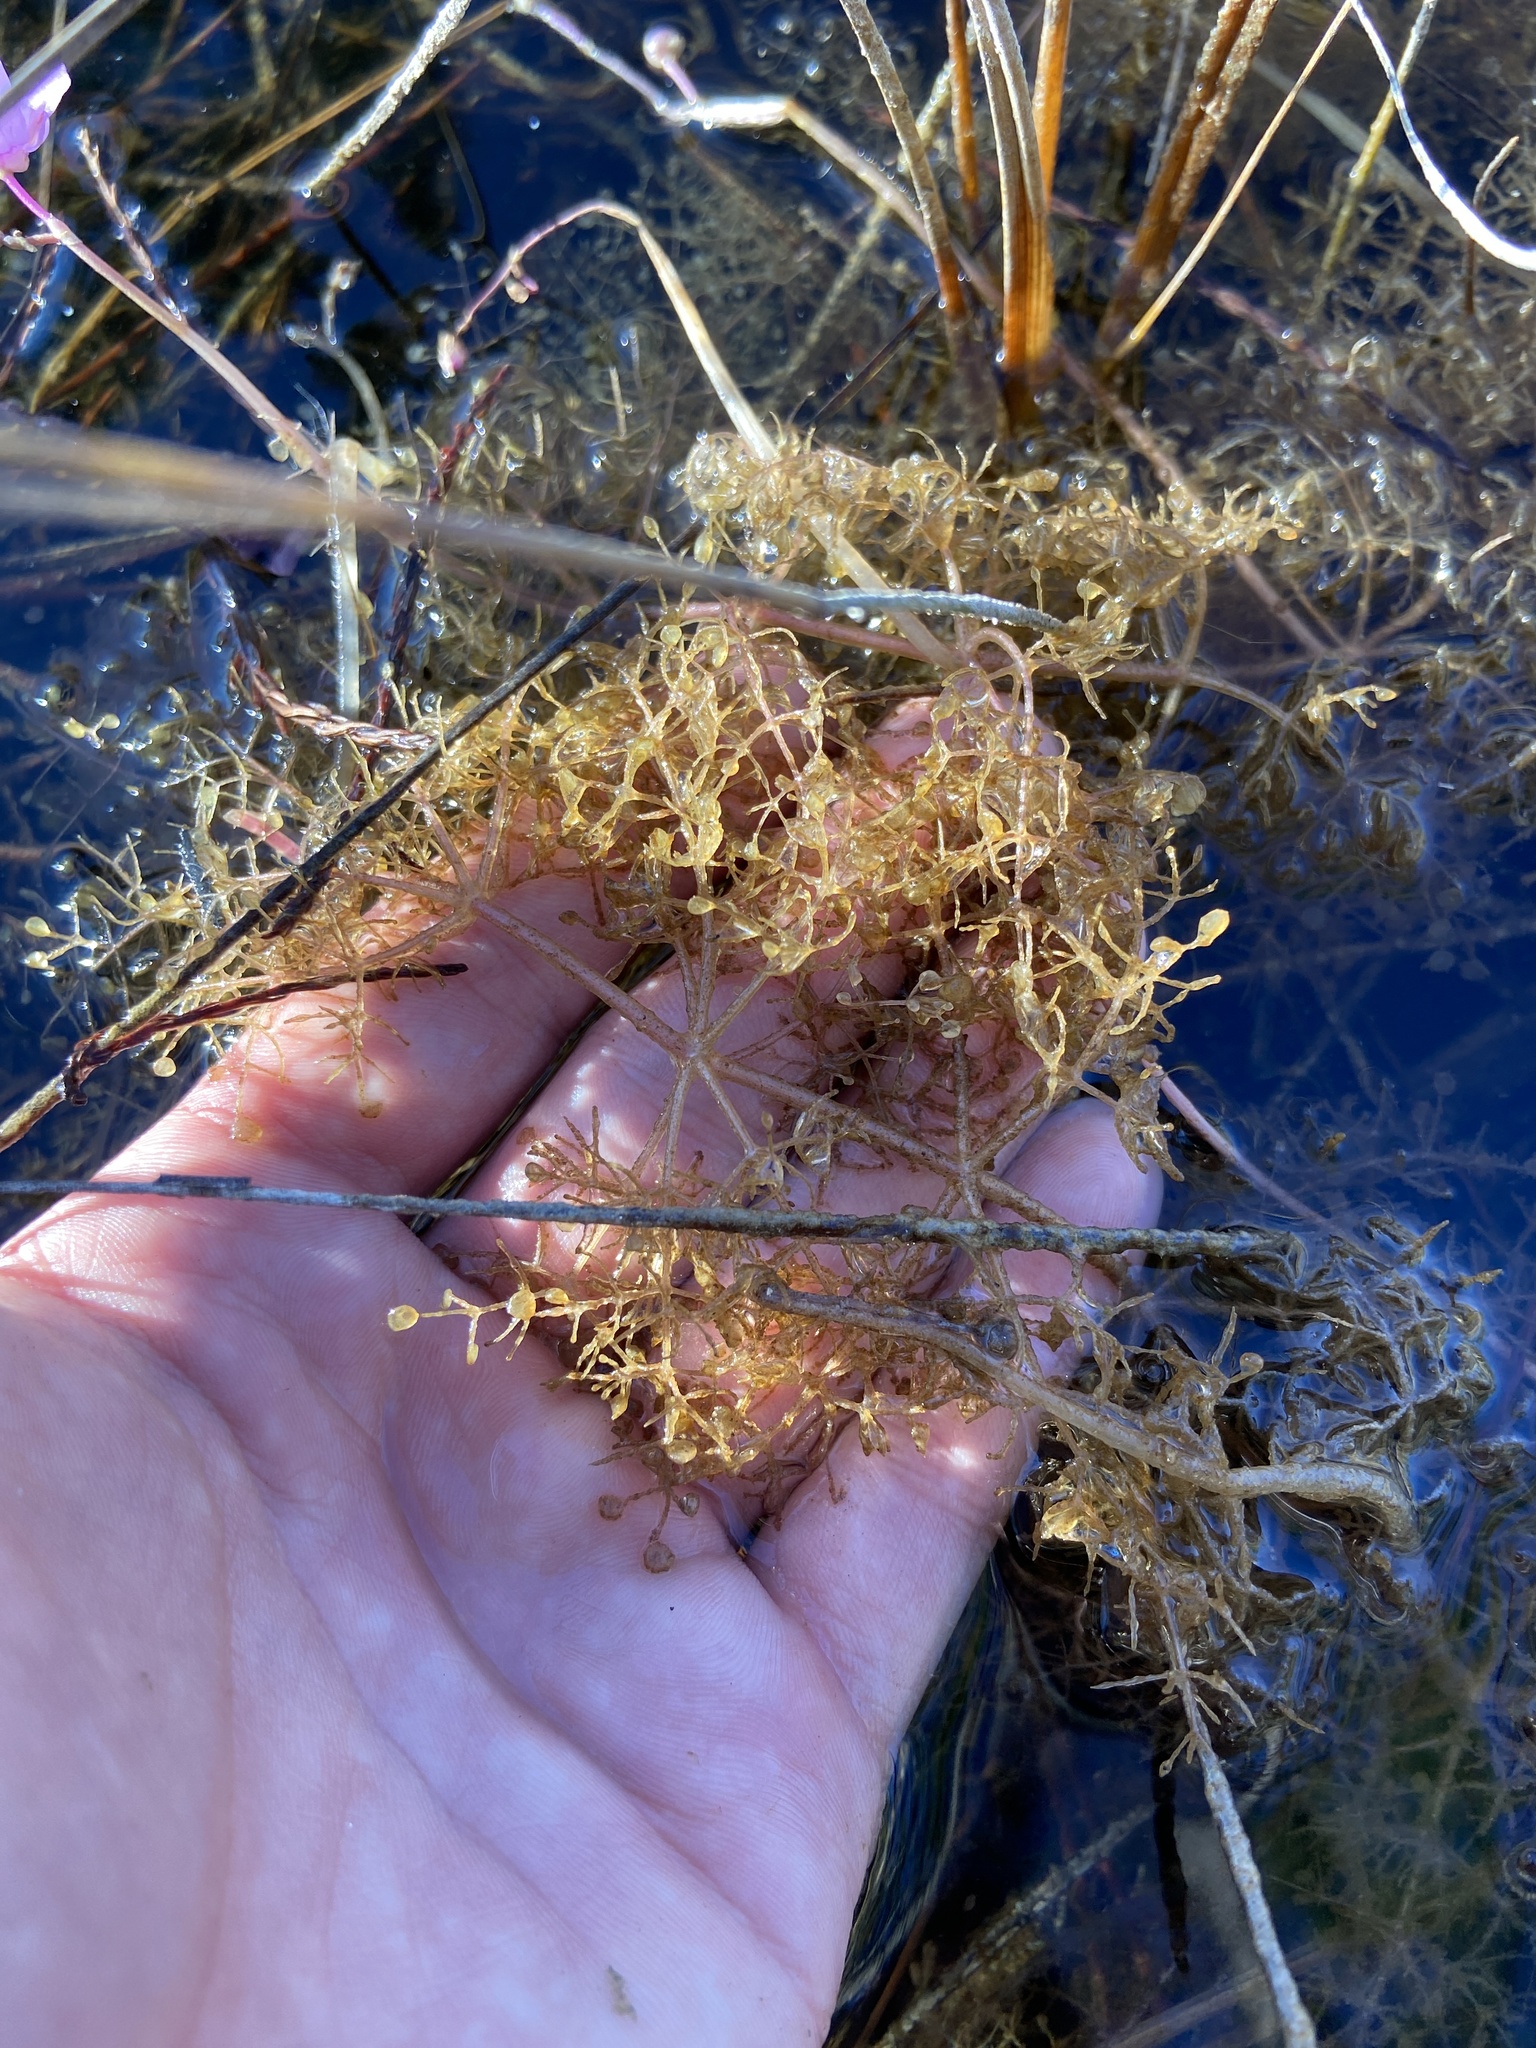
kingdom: Plantae
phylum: Tracheophyta
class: Magnoliopsida
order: Lamiales
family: Lentibulariaceae
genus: Utricularia
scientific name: Utricularia purpurea
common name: Eastern purple bladderwort
